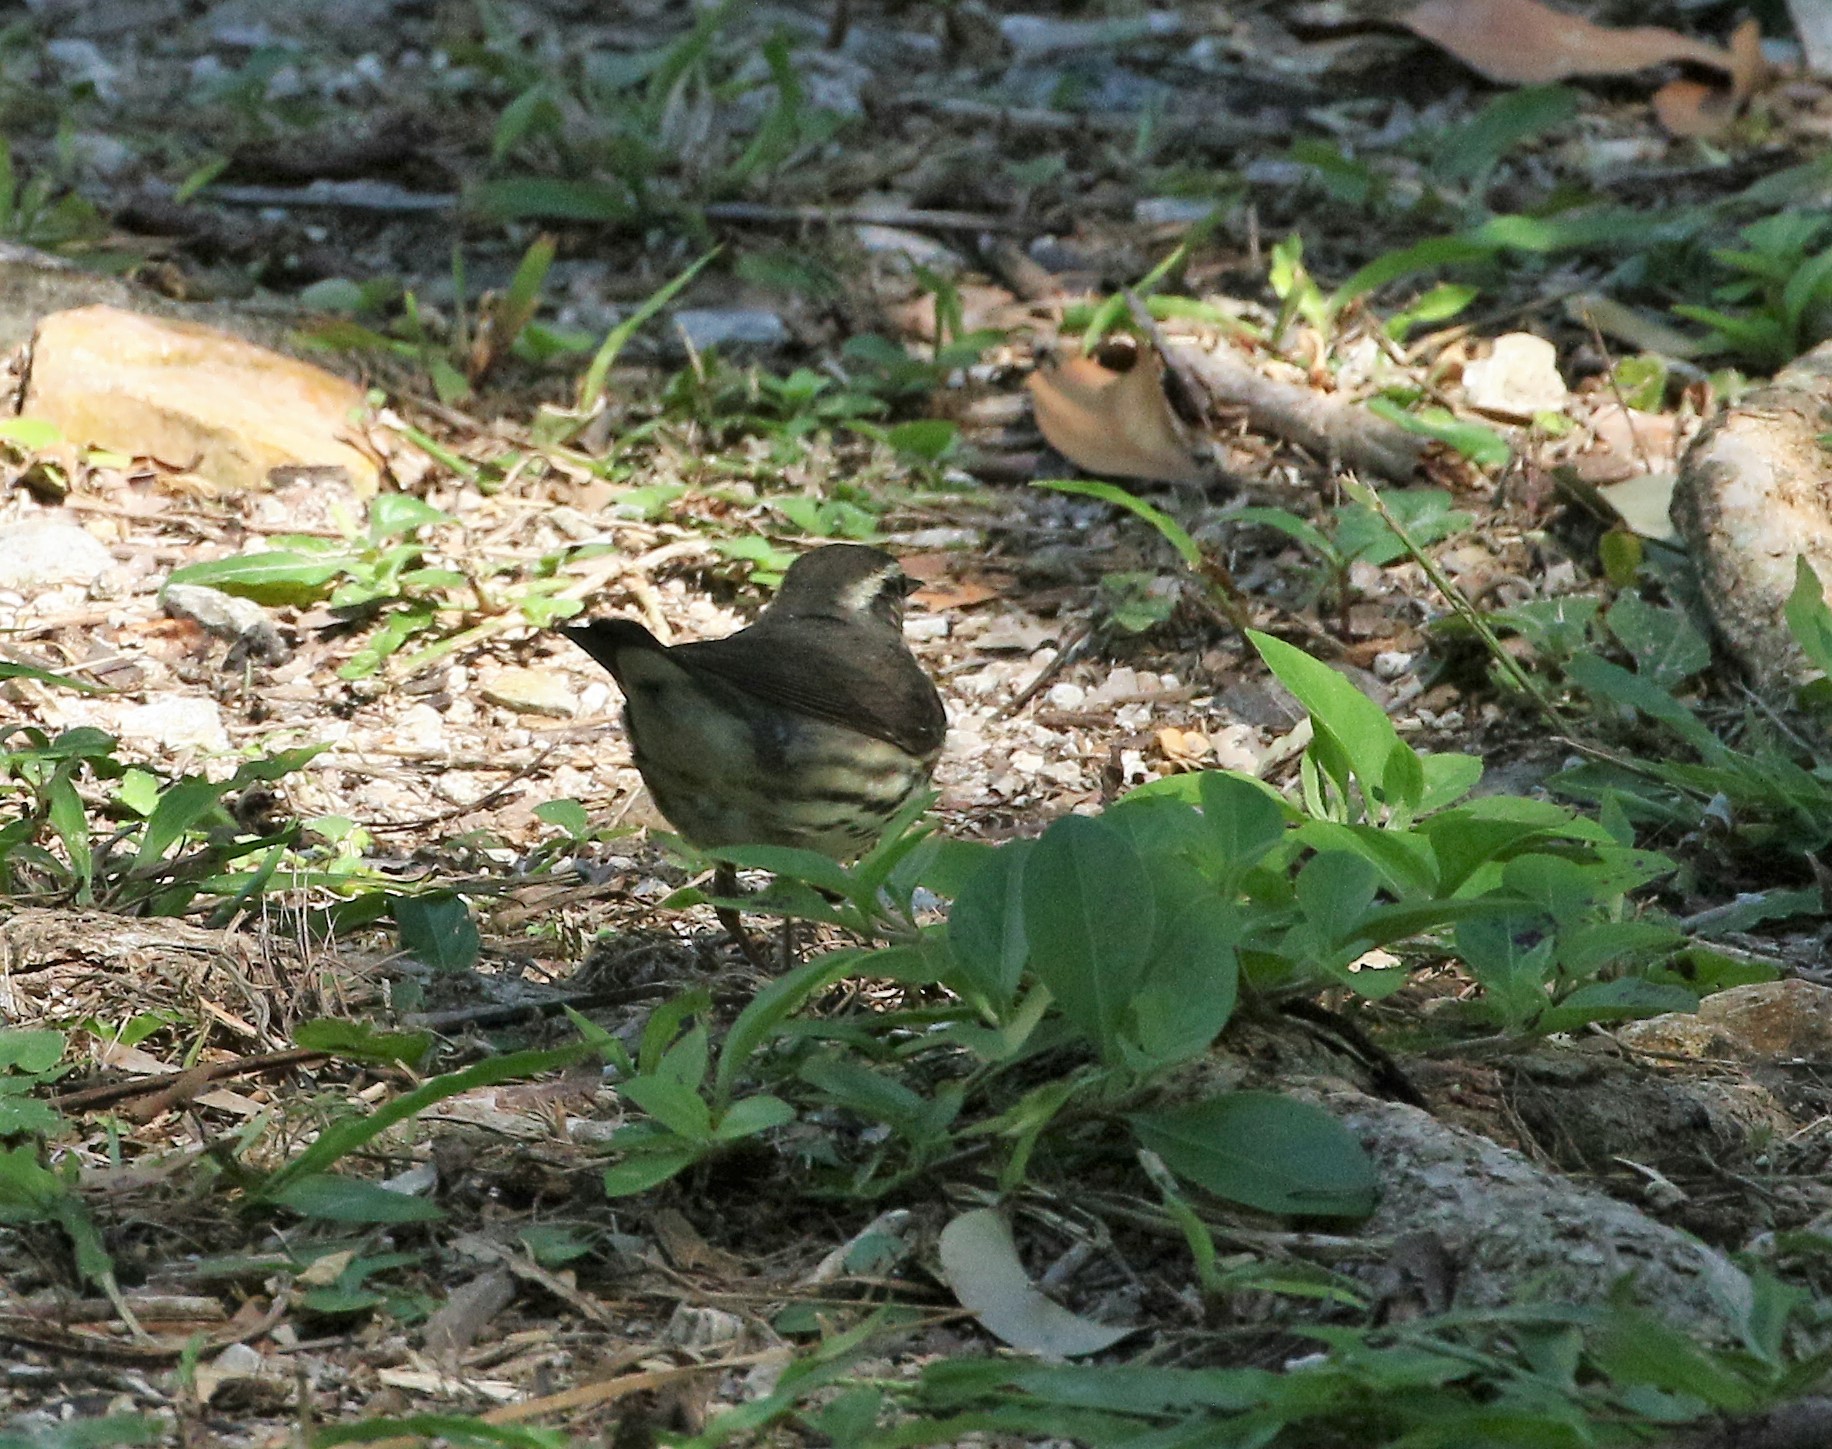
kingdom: Animalia
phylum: Chordata
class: Aves
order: Passeriformes
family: Parulidae
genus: Parkesia
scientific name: Parkesia noveboracensis
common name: Northern waterthrush
